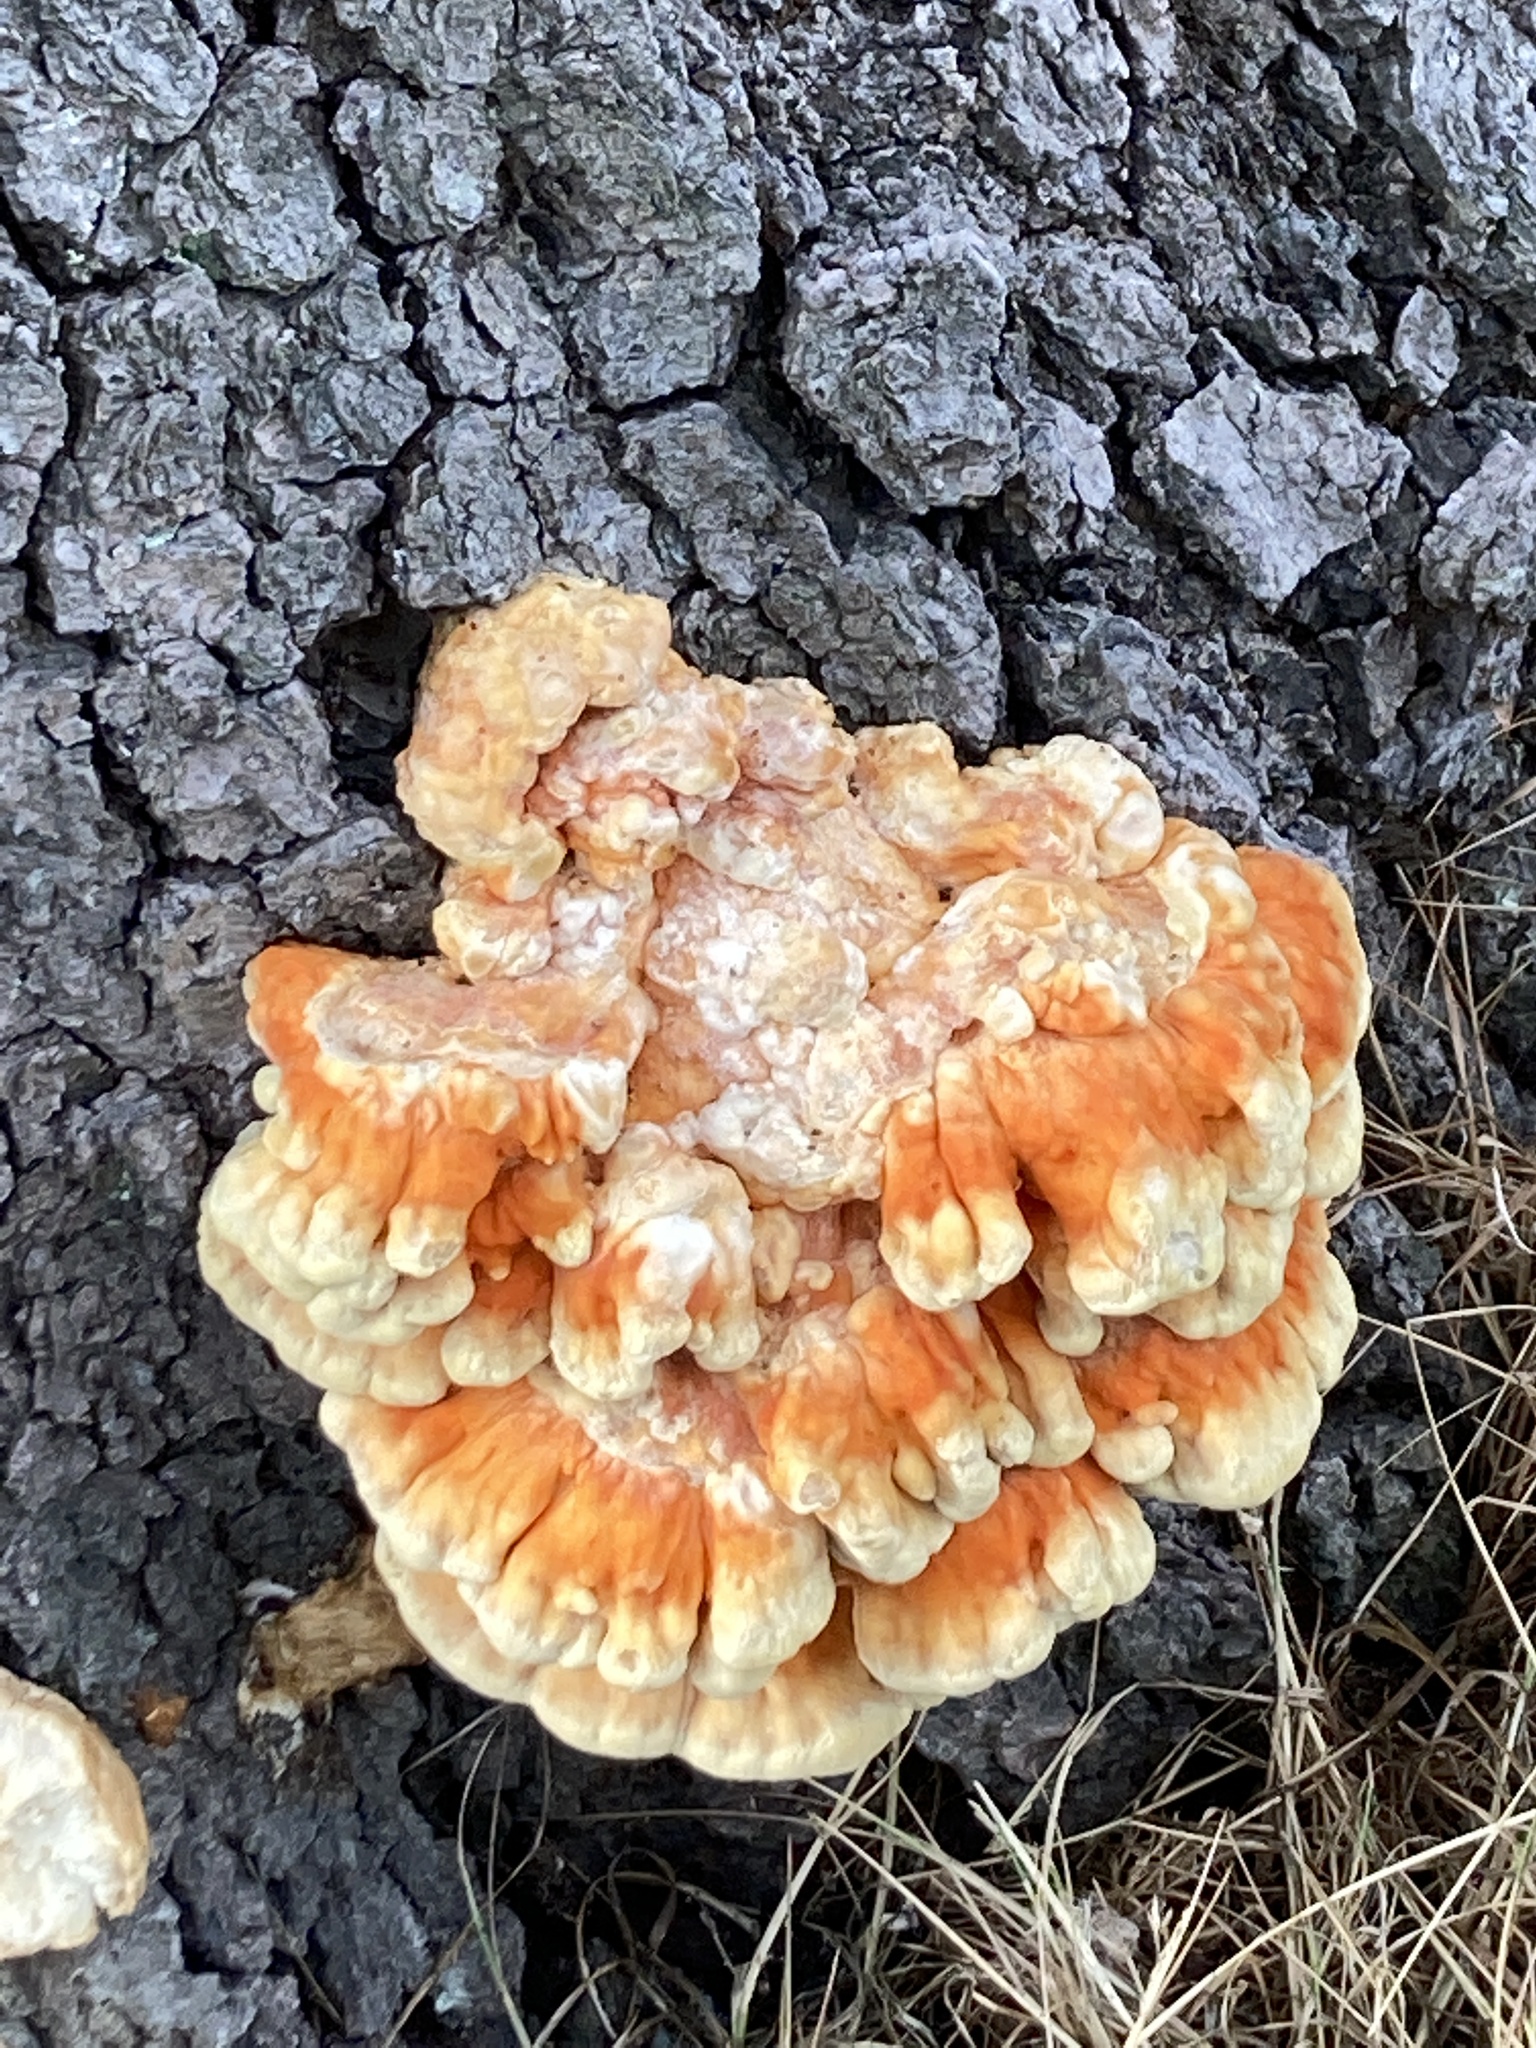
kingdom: Fungi
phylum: Basidiomycota
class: Agaricomycetes
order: Polyporales
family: Laetiporaceae
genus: Laetiporus
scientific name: Laetiporus sulphureus
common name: Chicken of the woods
